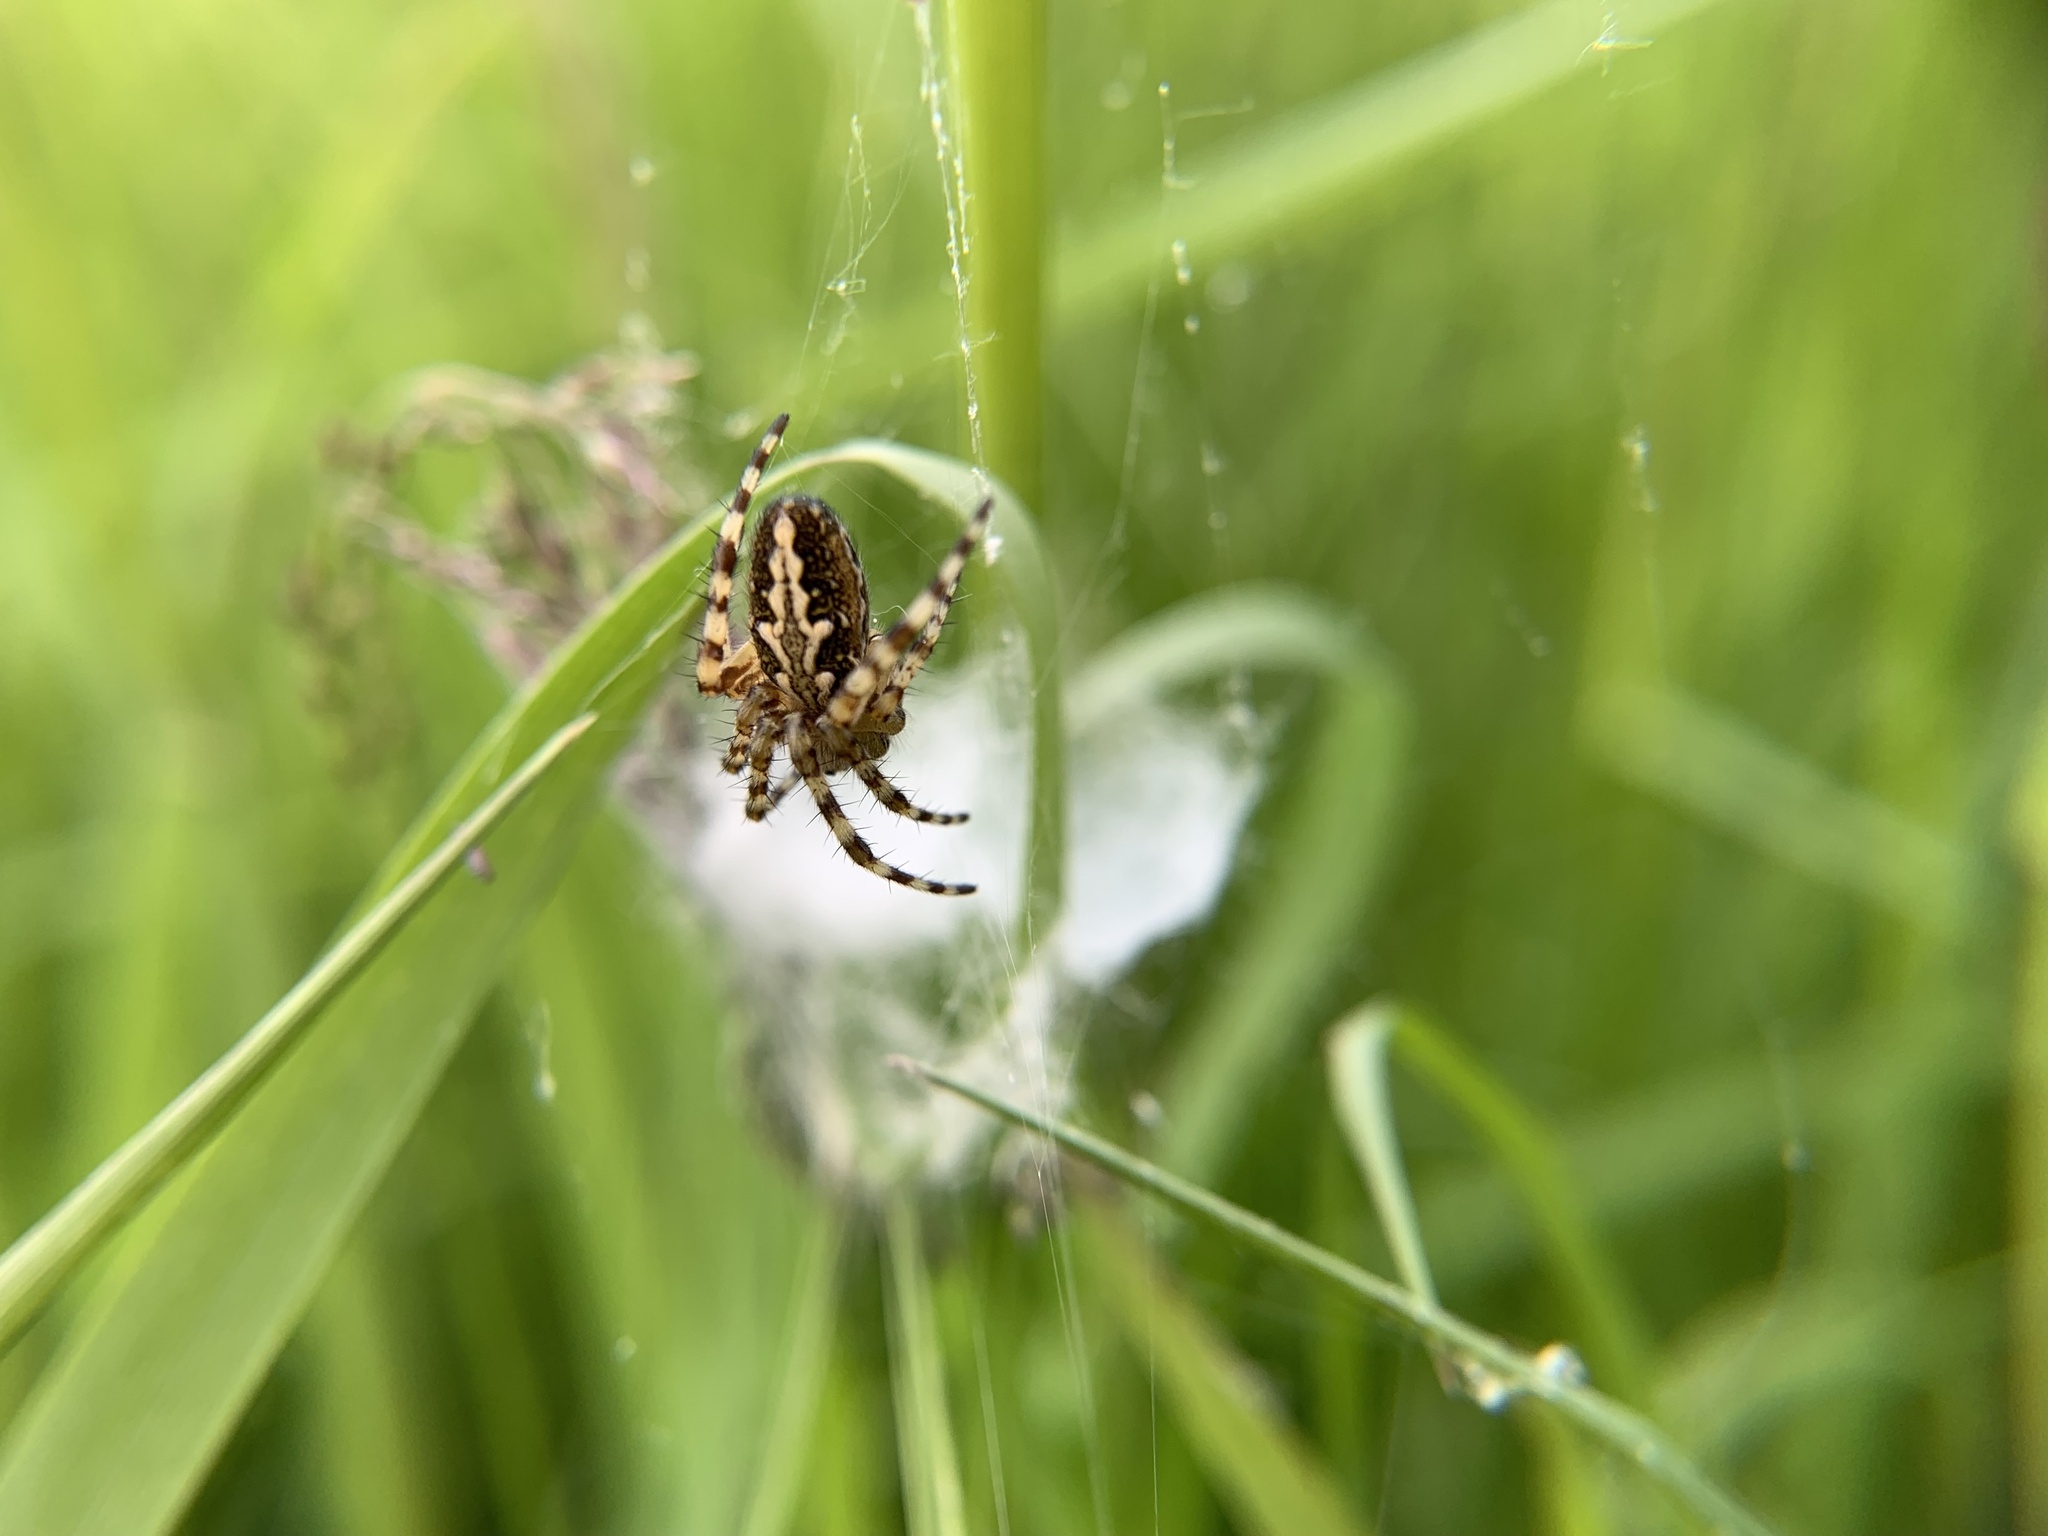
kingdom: Animalia
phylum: Arthropoda
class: Arachnida
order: Araneae
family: Araneidae
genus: Aculepeira
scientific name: Aculepeira ceropegia
